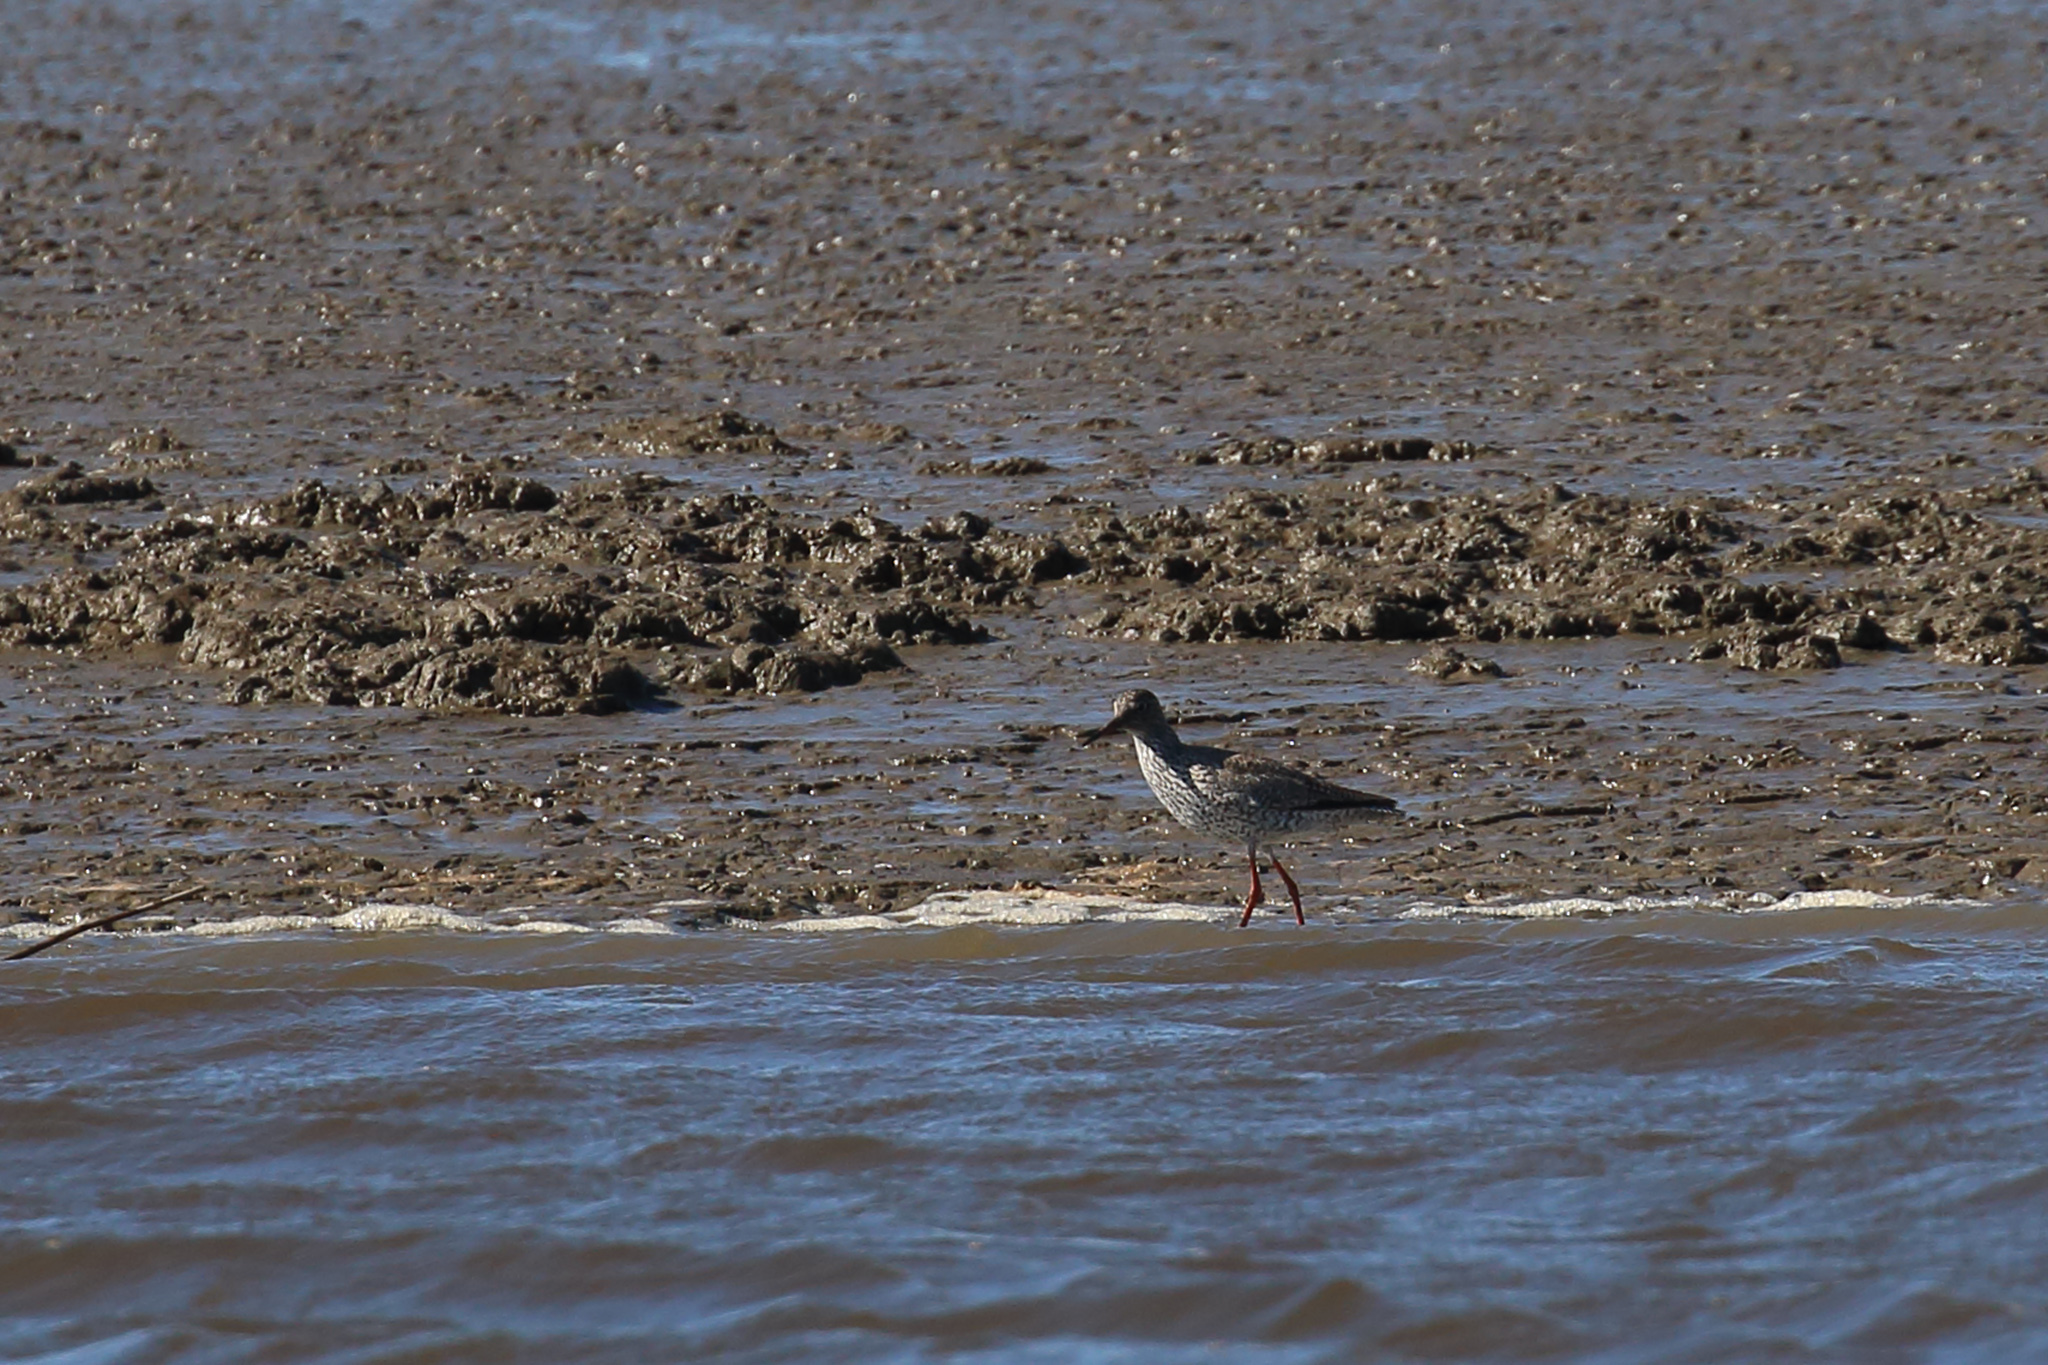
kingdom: Animalia
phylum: Chordata
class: Aves
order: Charadriiformes
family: Scolopacidae
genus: Tringa
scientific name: Tringa totanus
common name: Common redshank
